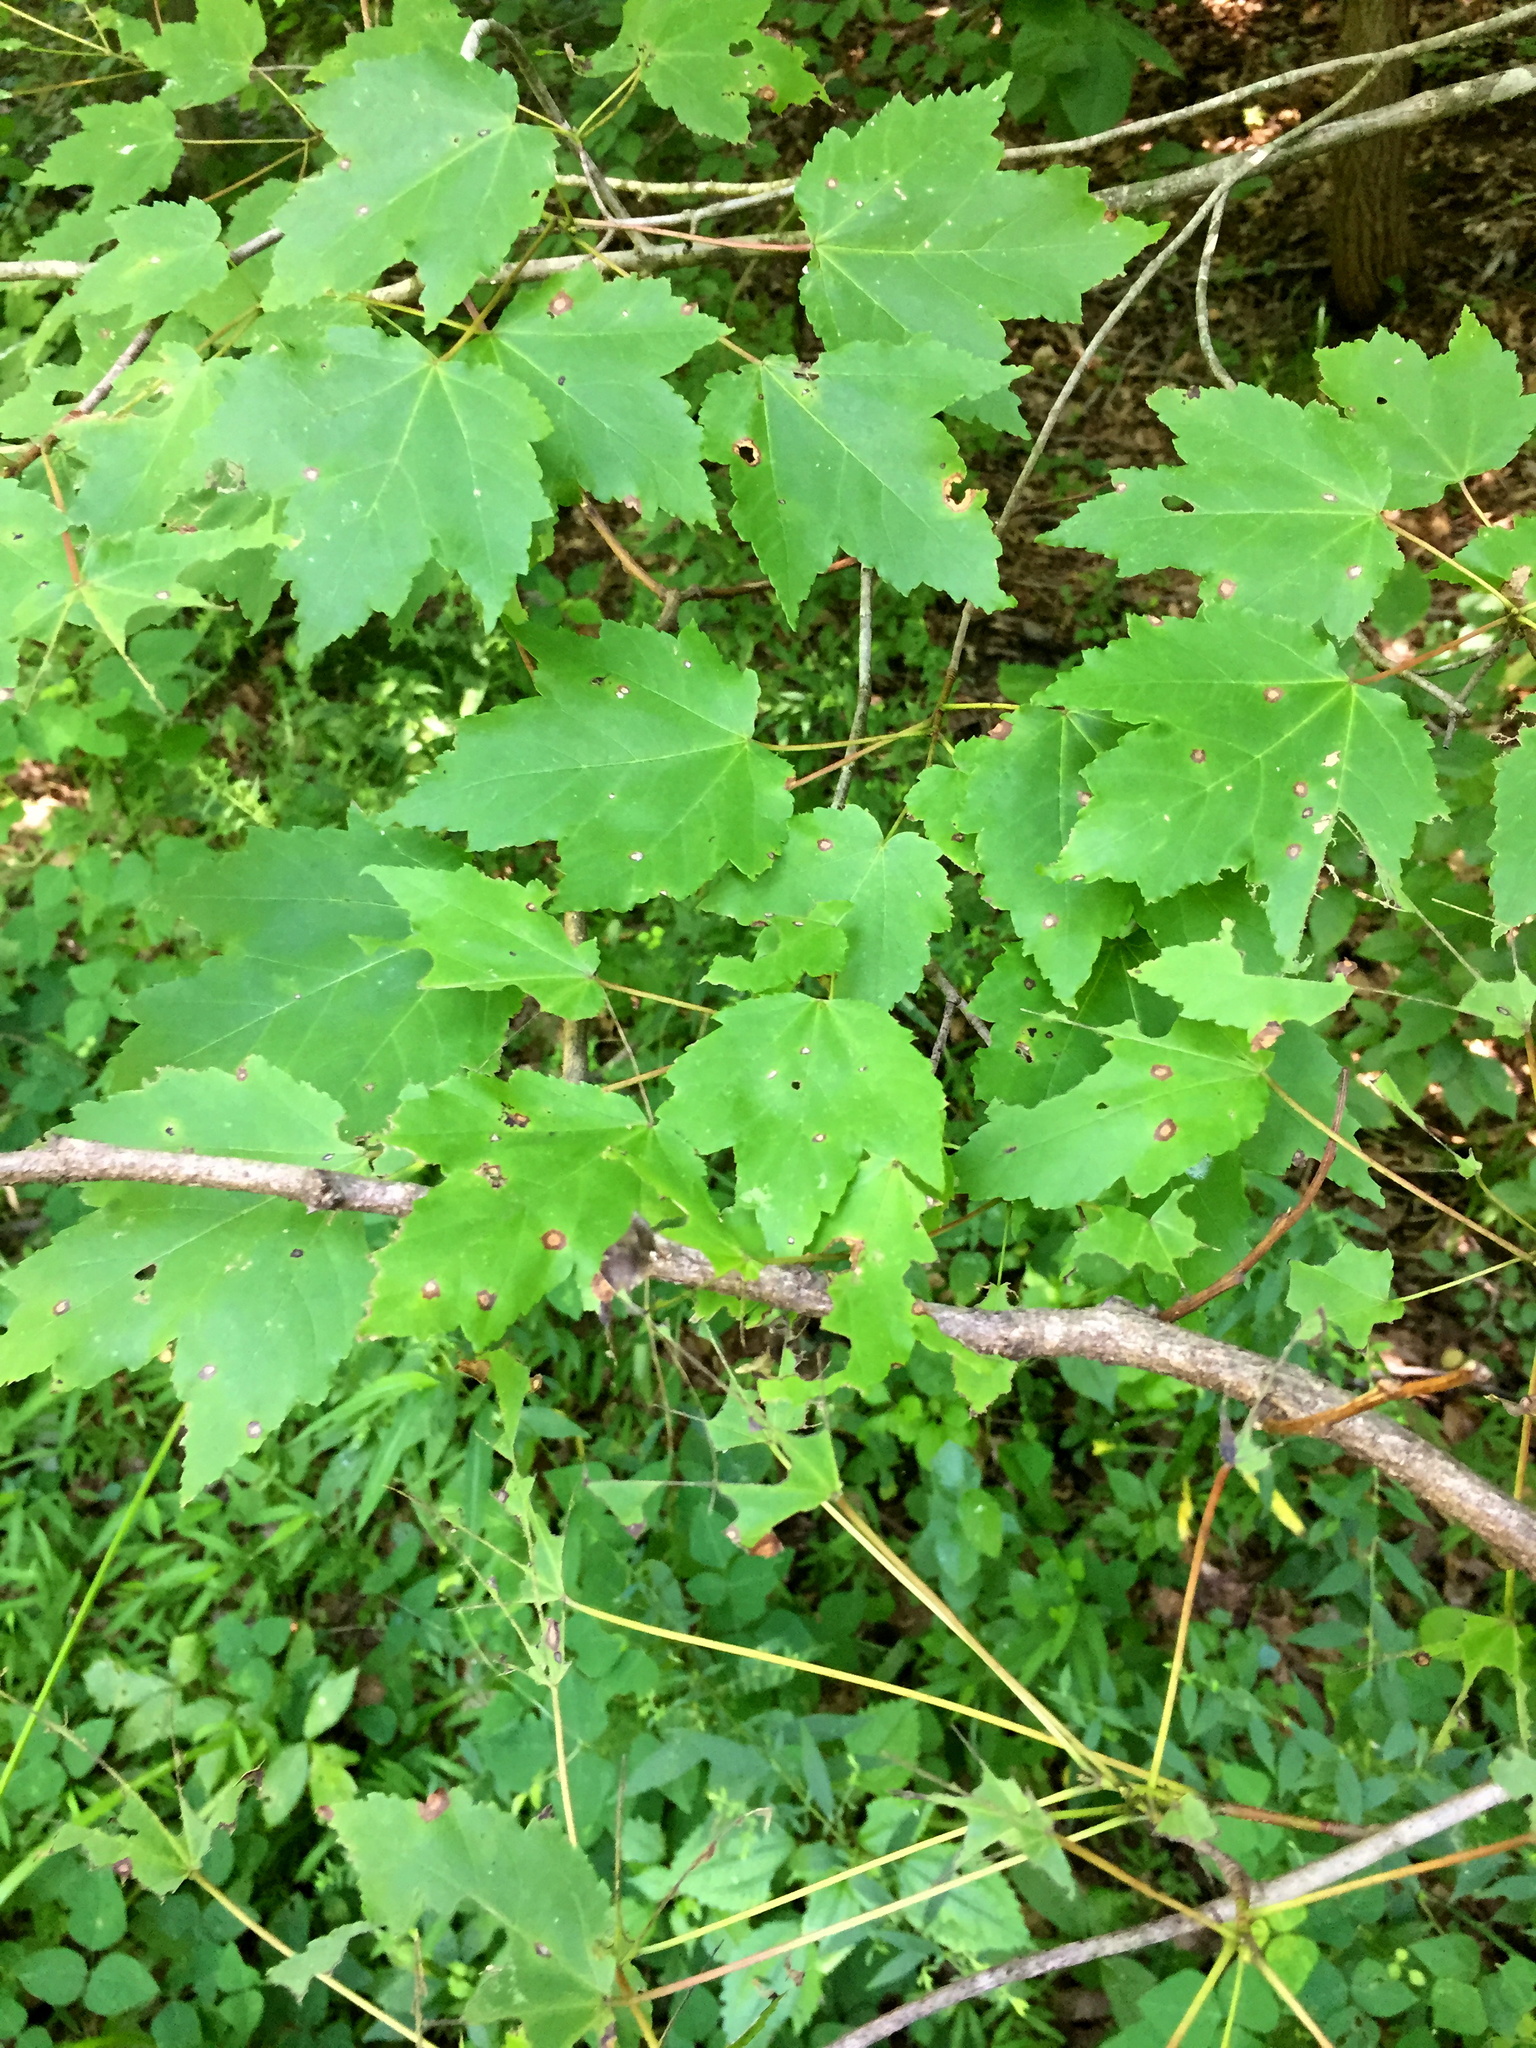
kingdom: Plantae
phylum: Tracheophyta
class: Magnoliopsida
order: Sapindales
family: Sapindaceae
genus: Acer
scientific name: Acer rubrum
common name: Red maple
